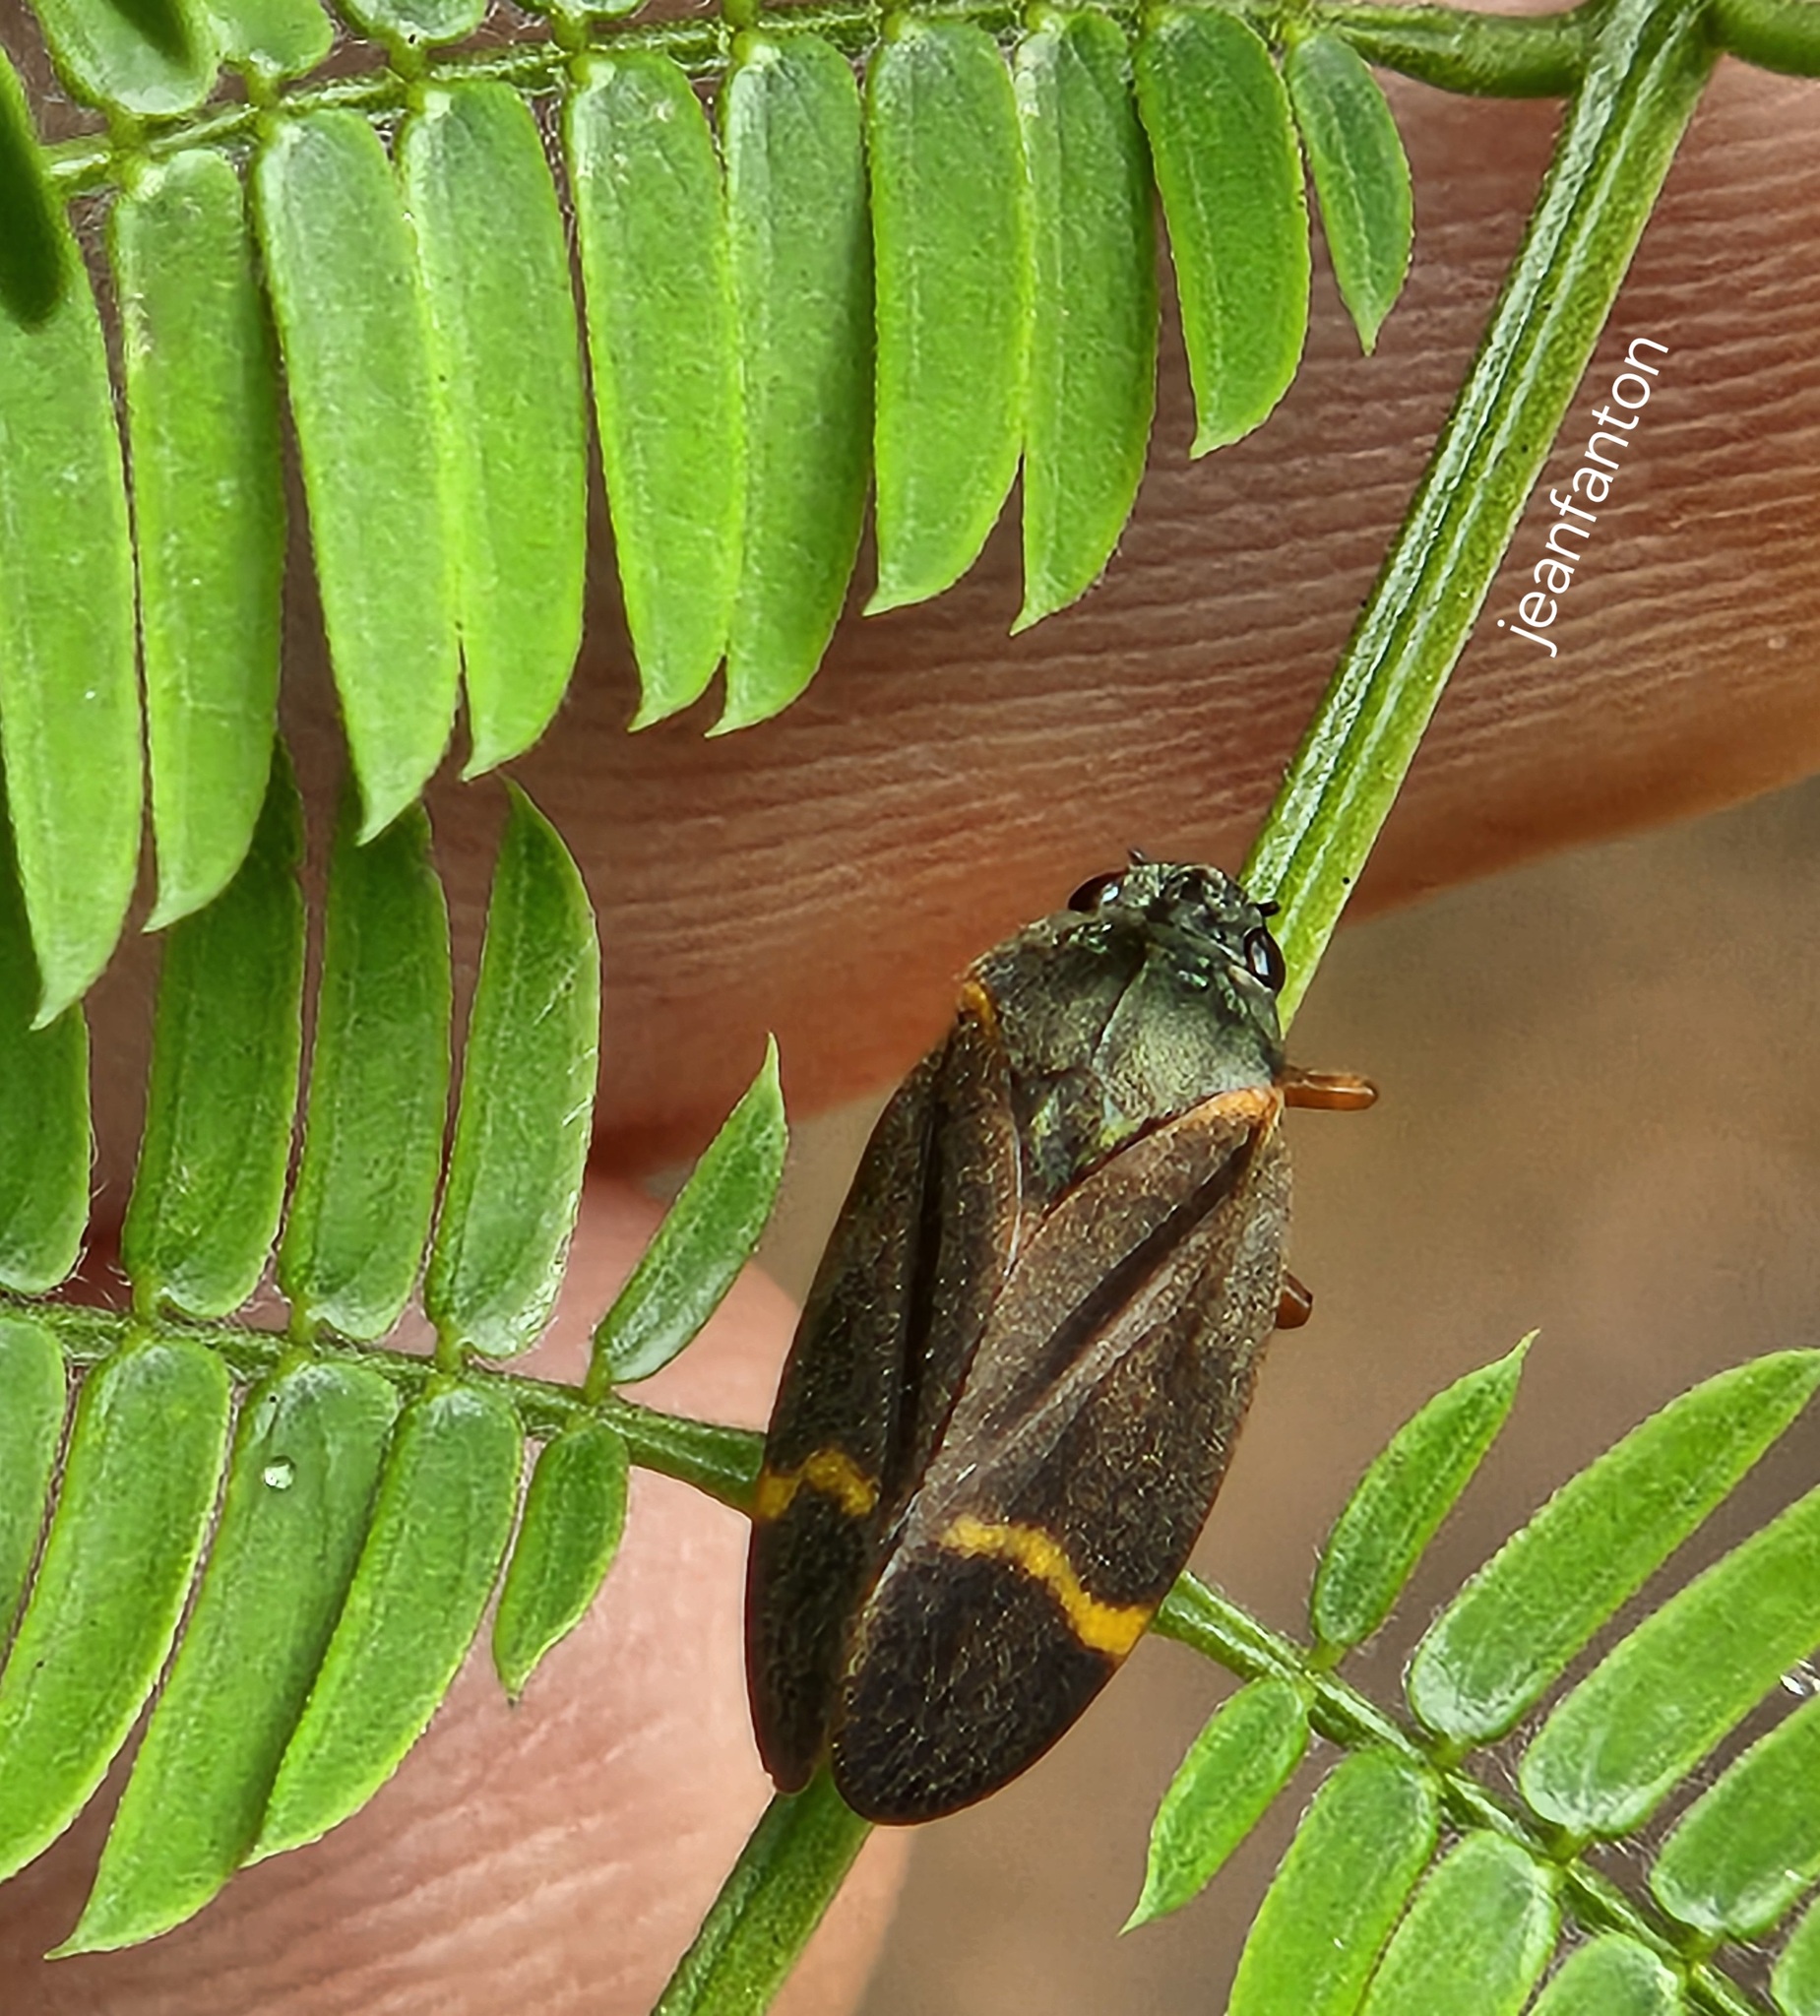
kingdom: Animalia
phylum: Arthropoda
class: Insecta
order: Hemiptera
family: Cercopidae
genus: Deois
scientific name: Deois schach
